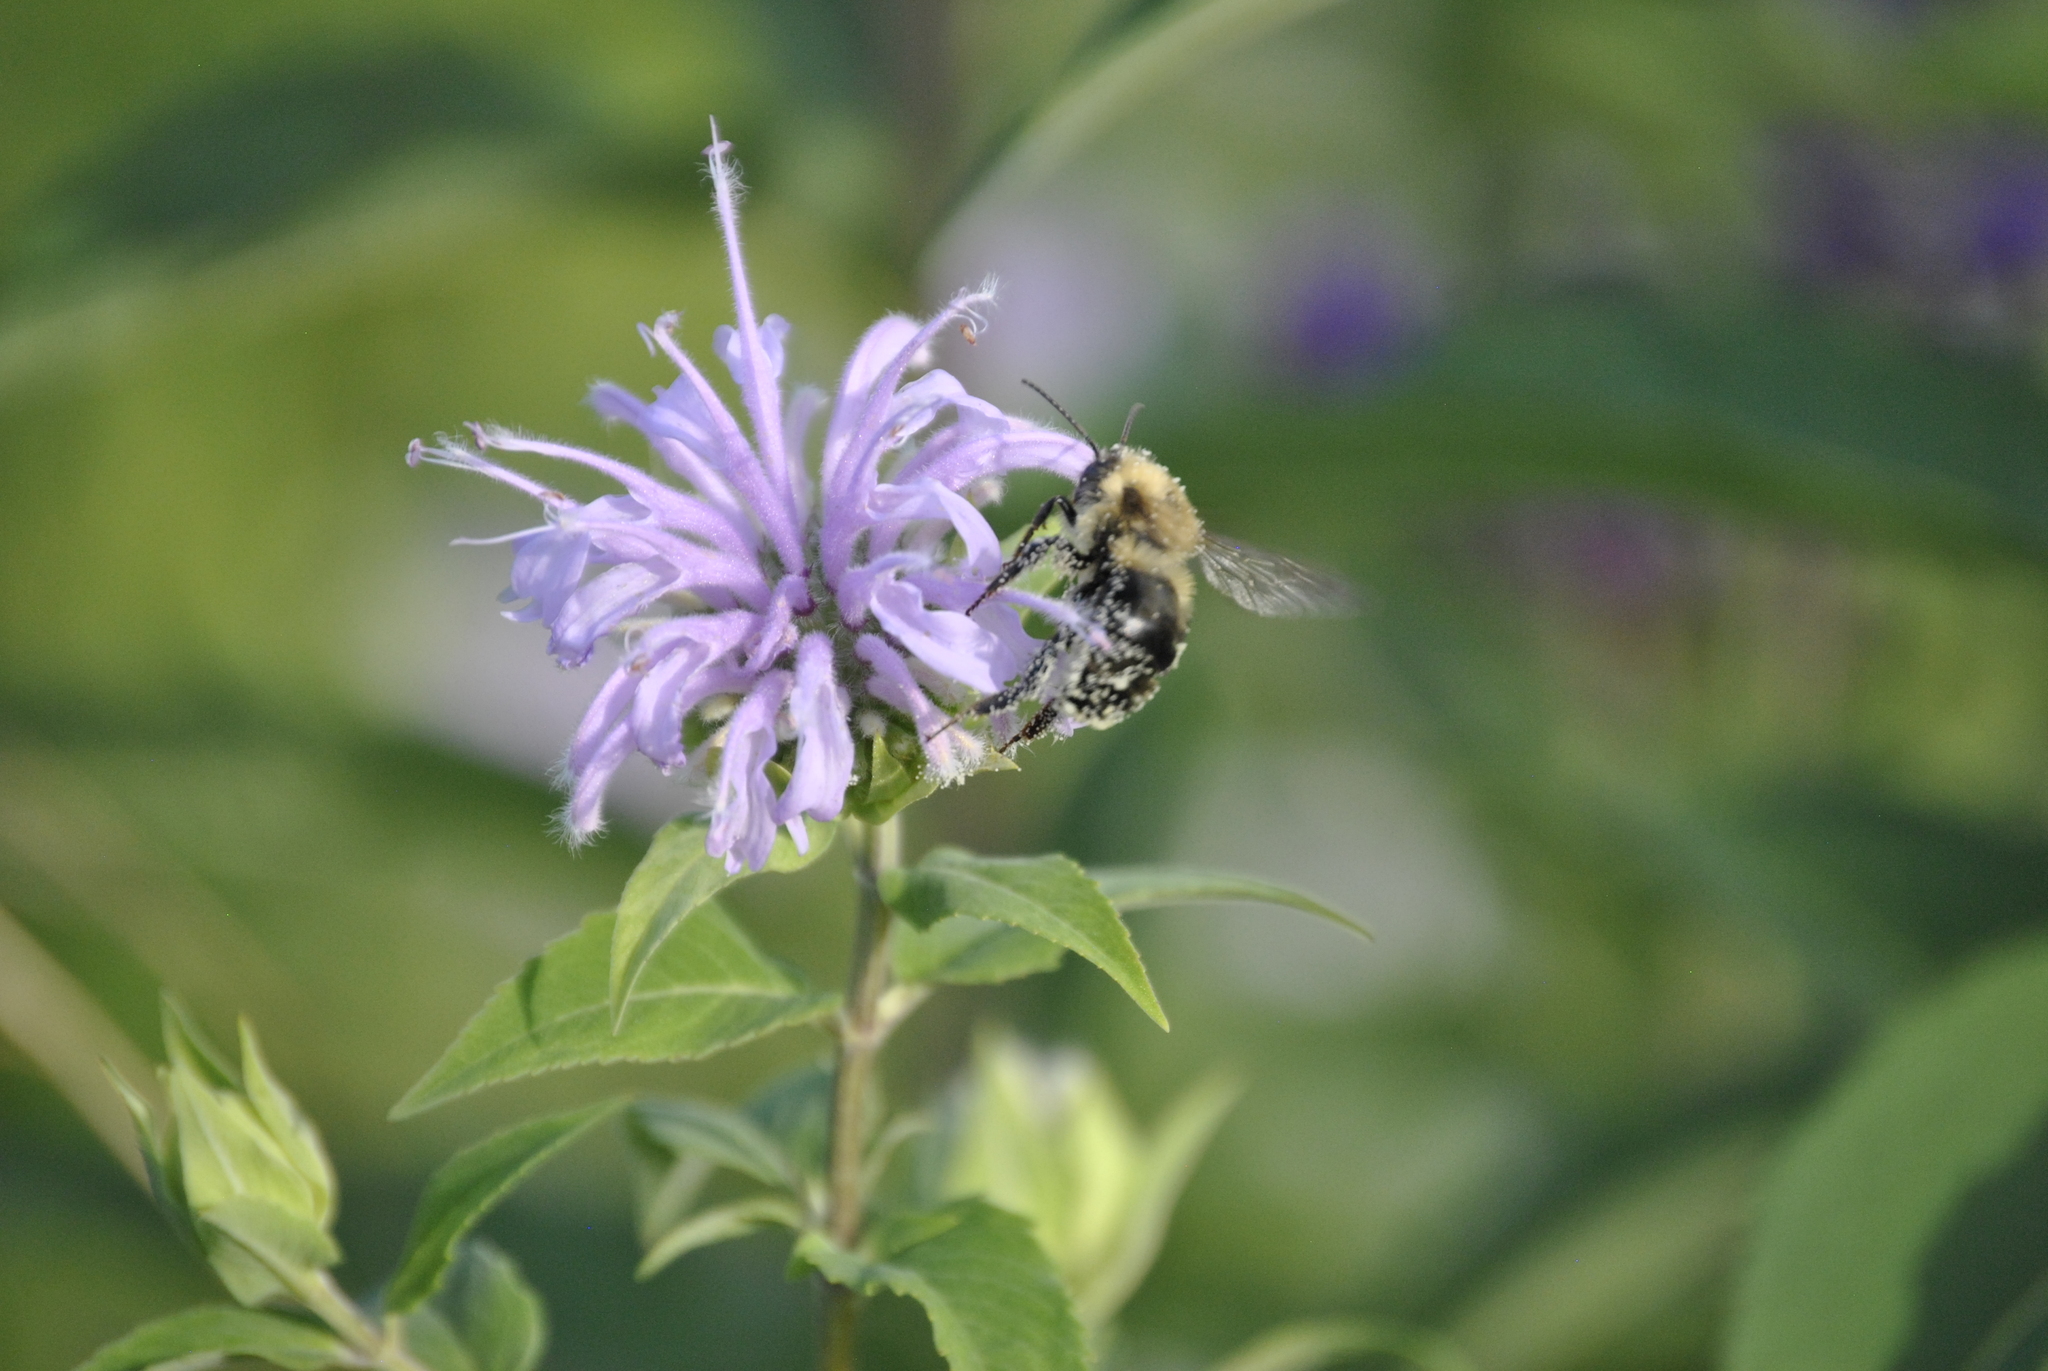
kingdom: Animalia
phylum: Arthropoda
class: Insecta
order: Hymenoptera
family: Apidae
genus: Bombus
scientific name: Bombus bimaculatus
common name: Two-spotted bumble bee
